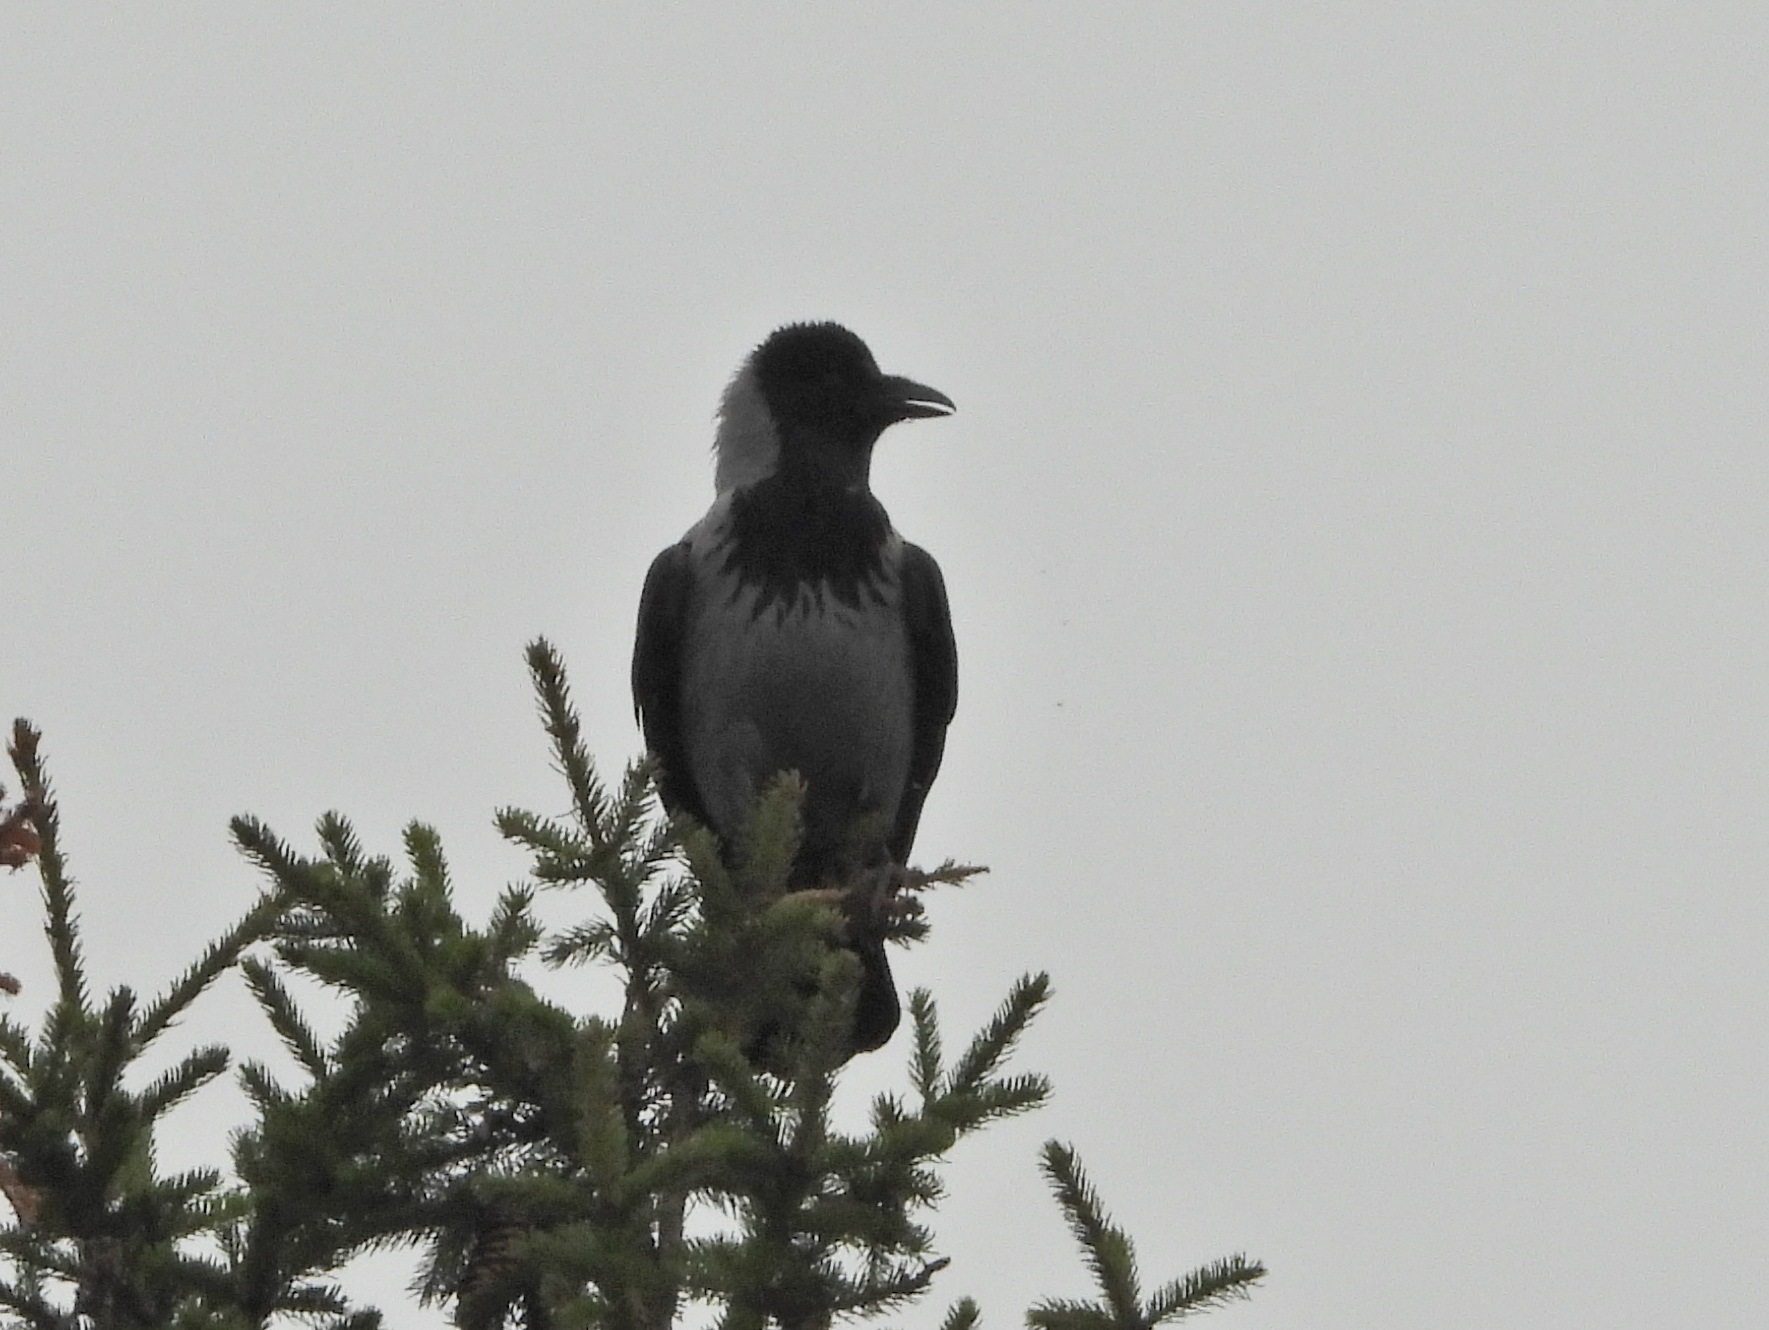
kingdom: Animalia
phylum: Chordata
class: Aves
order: Passeriformes
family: Corvidae
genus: Corvus
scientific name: Corvus cornix
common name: Hooded crow
